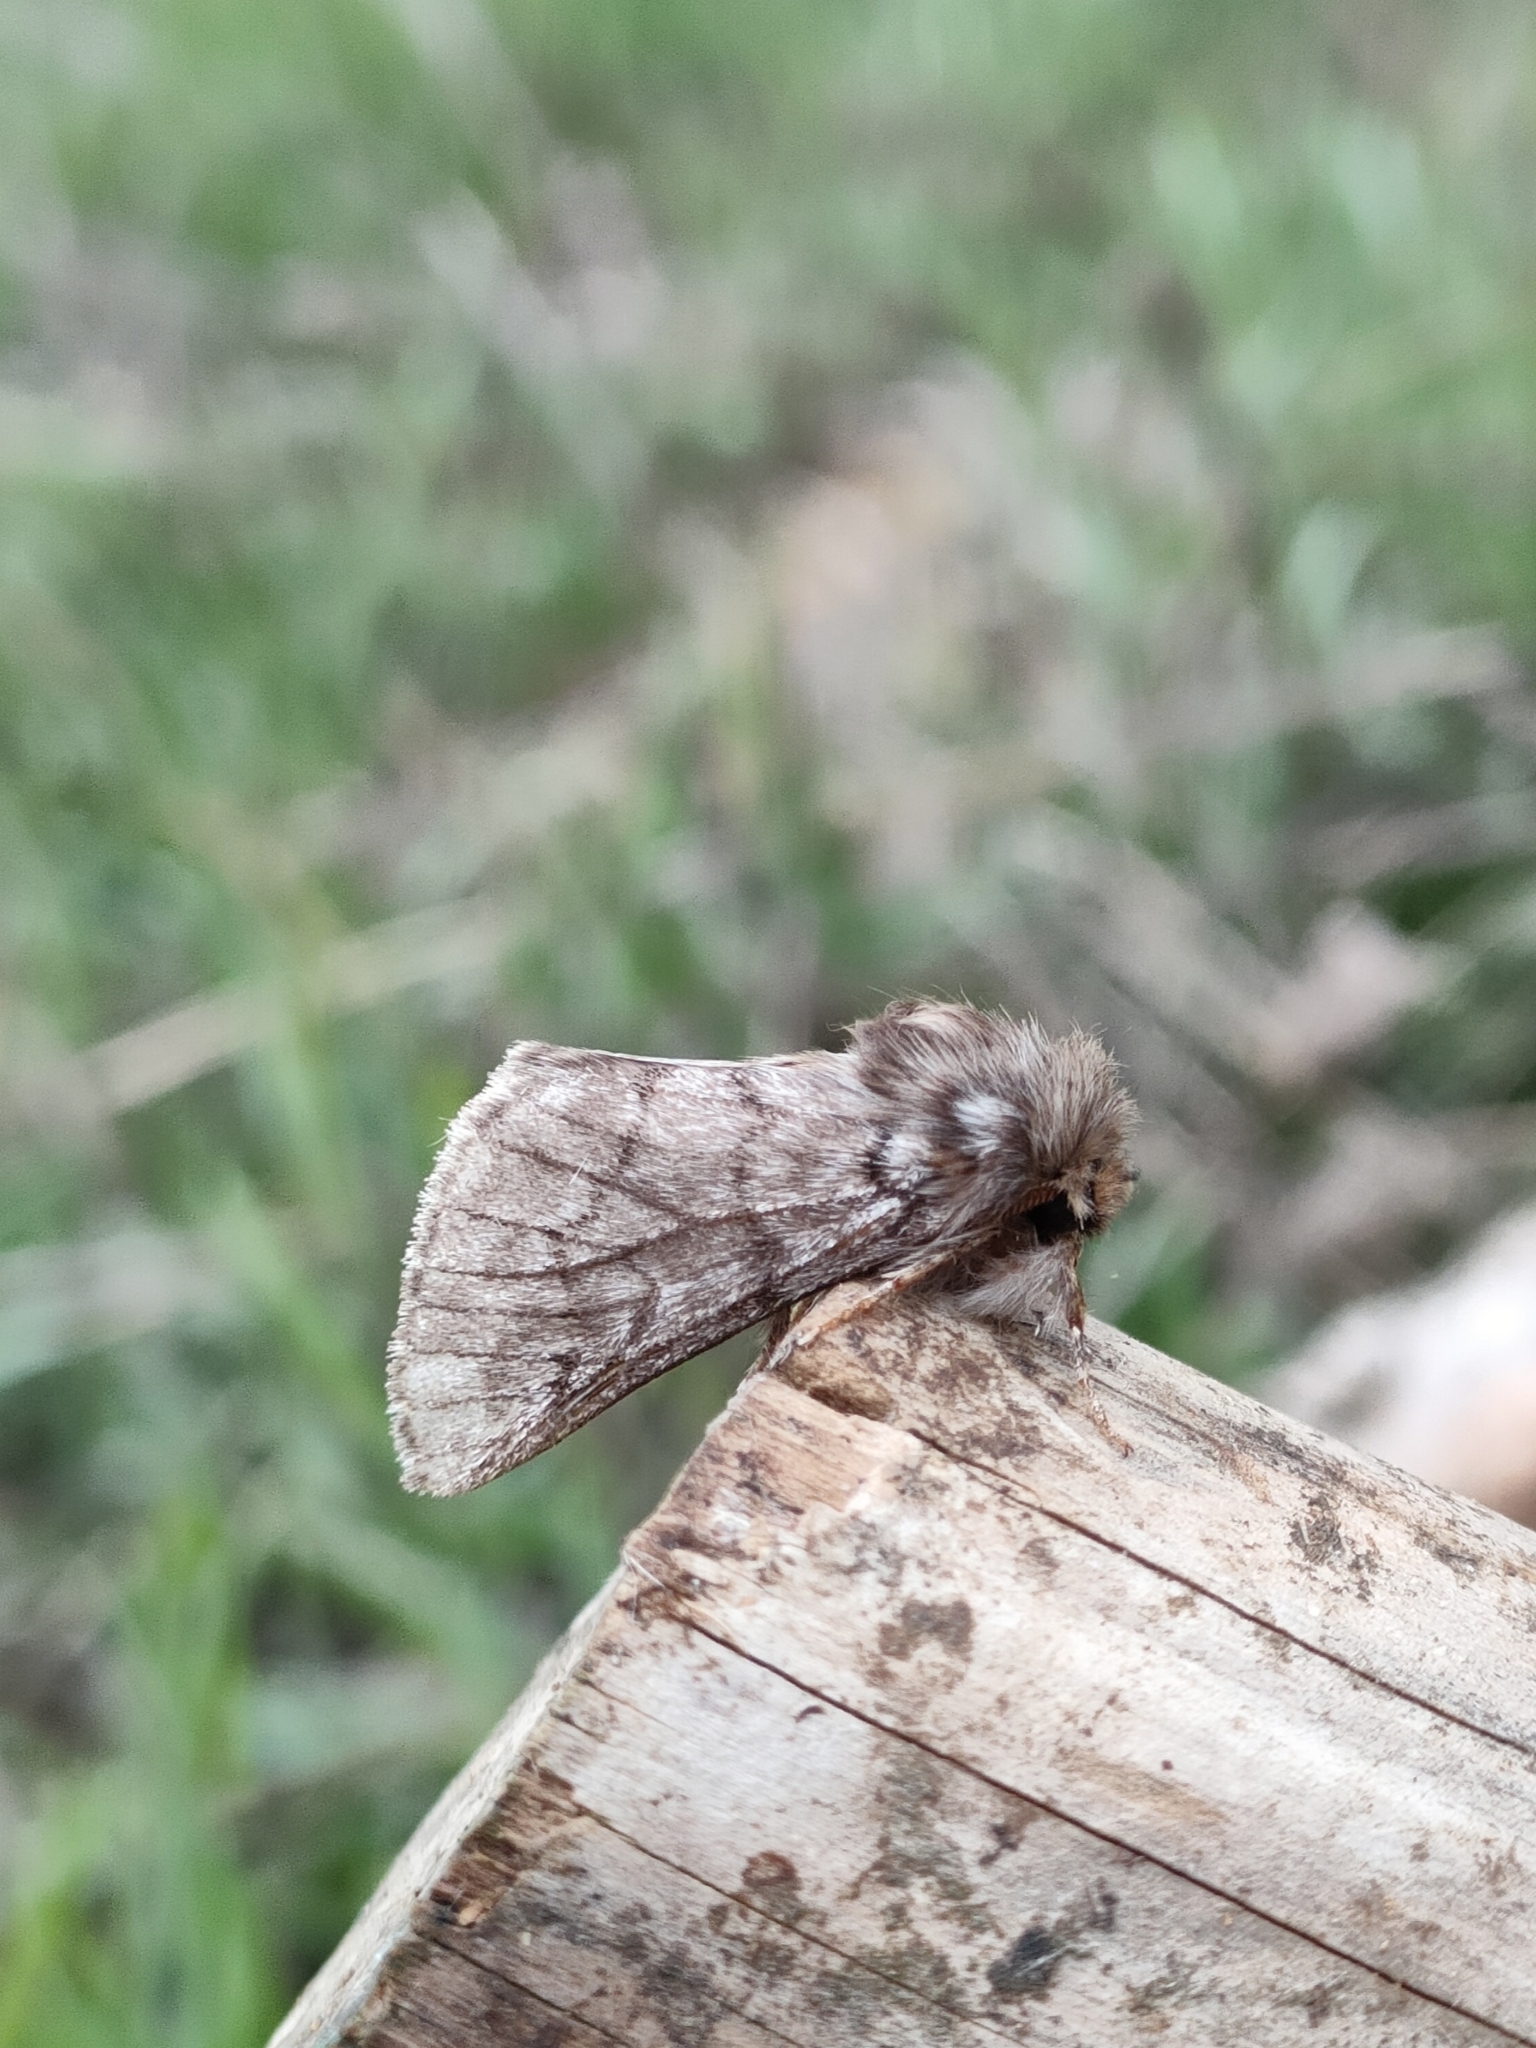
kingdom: Animalia
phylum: Arthropoda
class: Insecta
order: Lepidoptera
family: Notodontidae
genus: Thaumetopoea
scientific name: Thaumetopoea pityocampa
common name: Pine processionary
